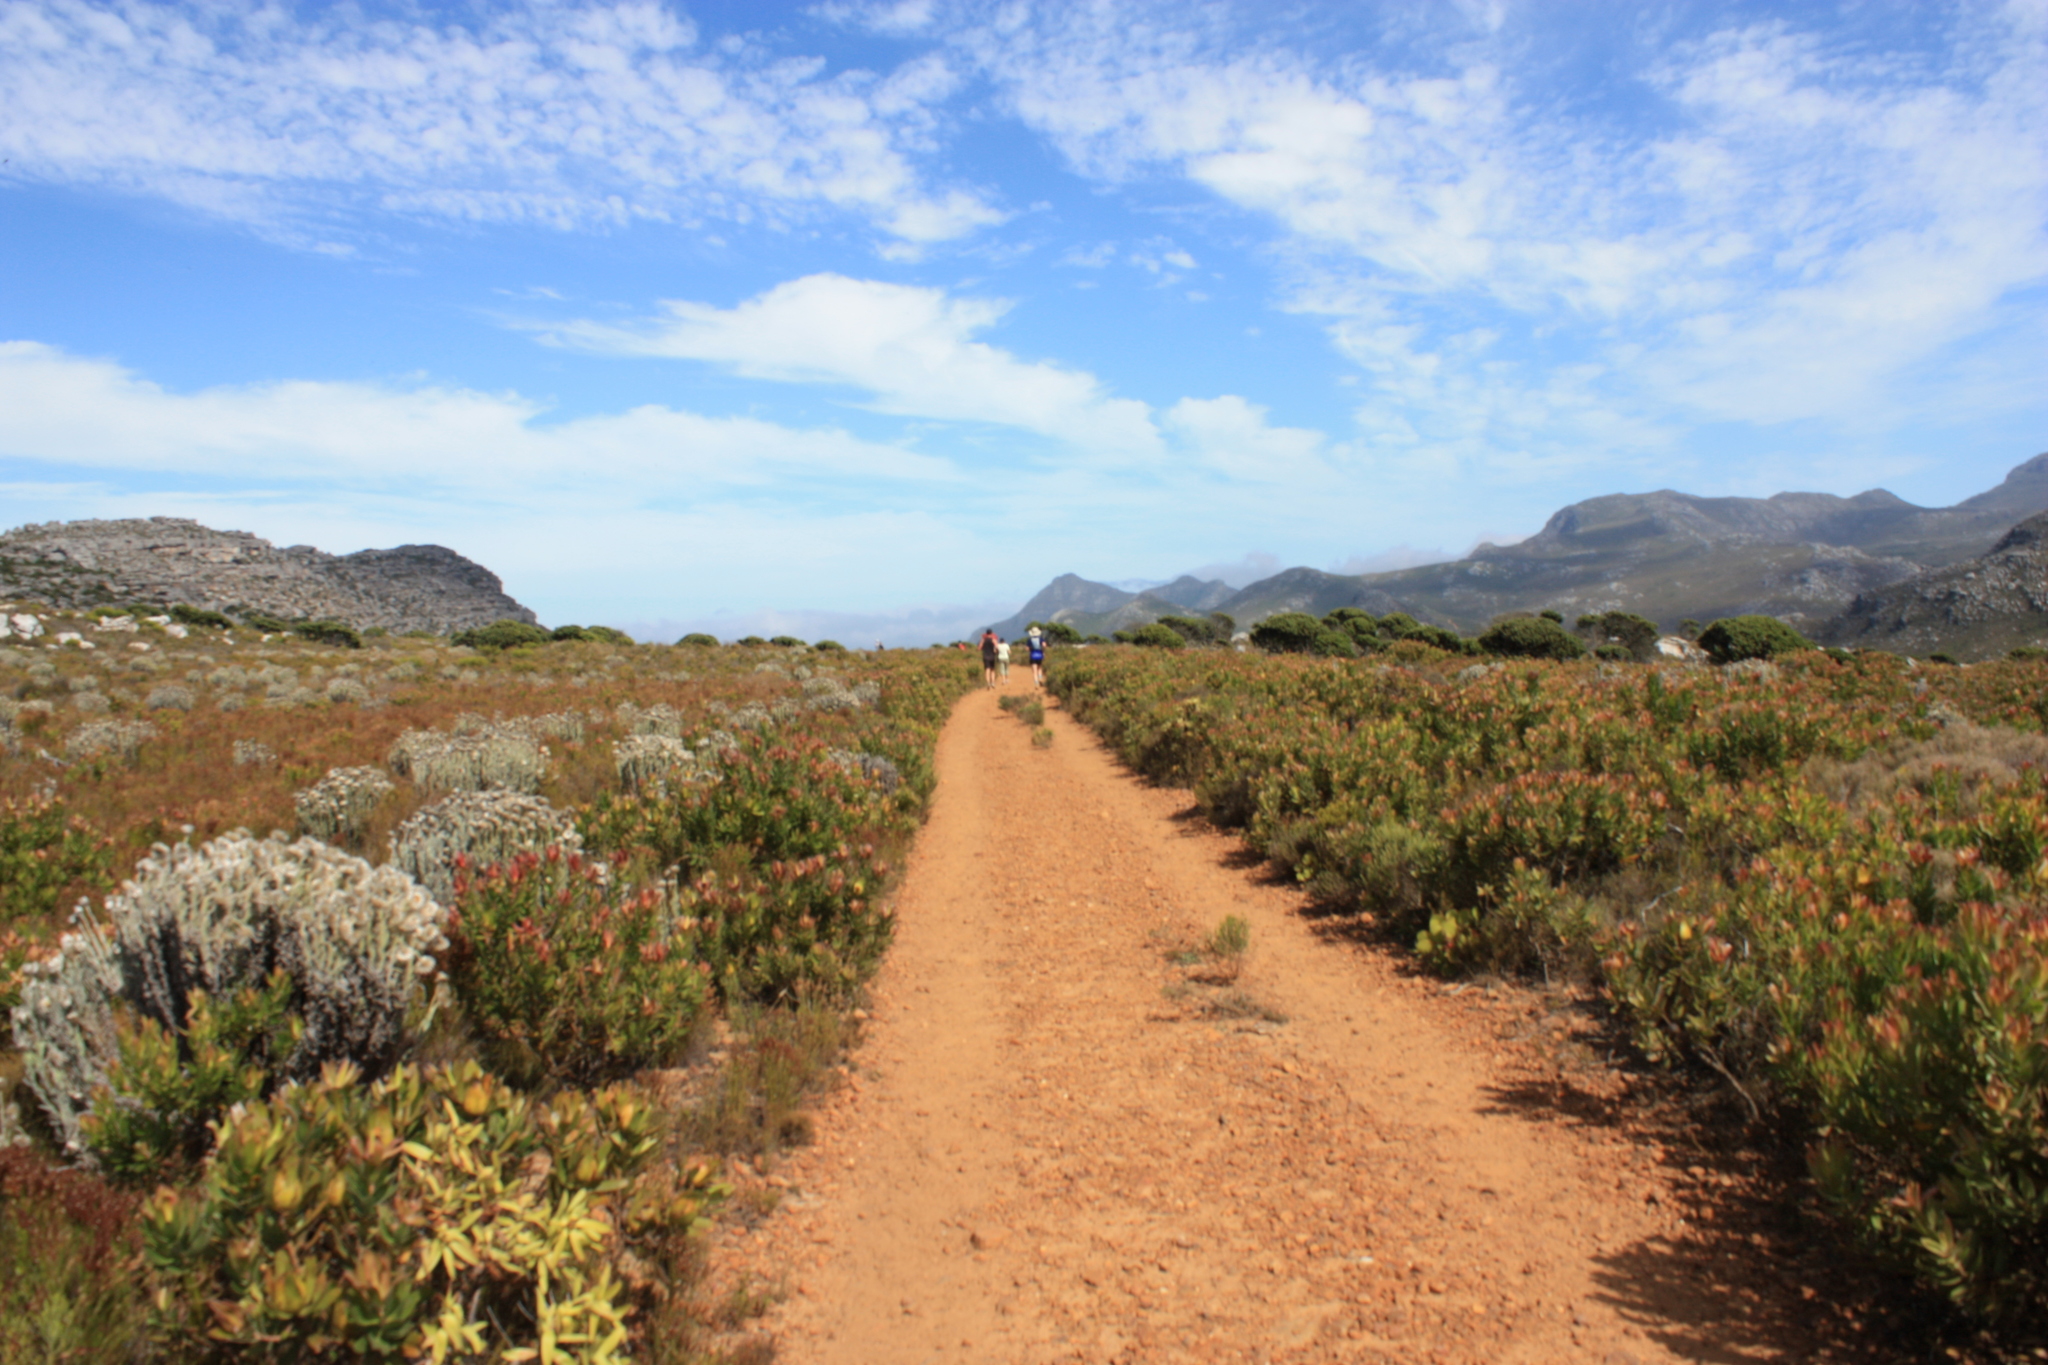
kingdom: Plantae
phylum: Tracheophyta
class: Magnoliopsida
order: Proteales
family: Proteaceae
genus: Leucadendron
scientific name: Leucadendron laureolum
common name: Golden sunshinebush
